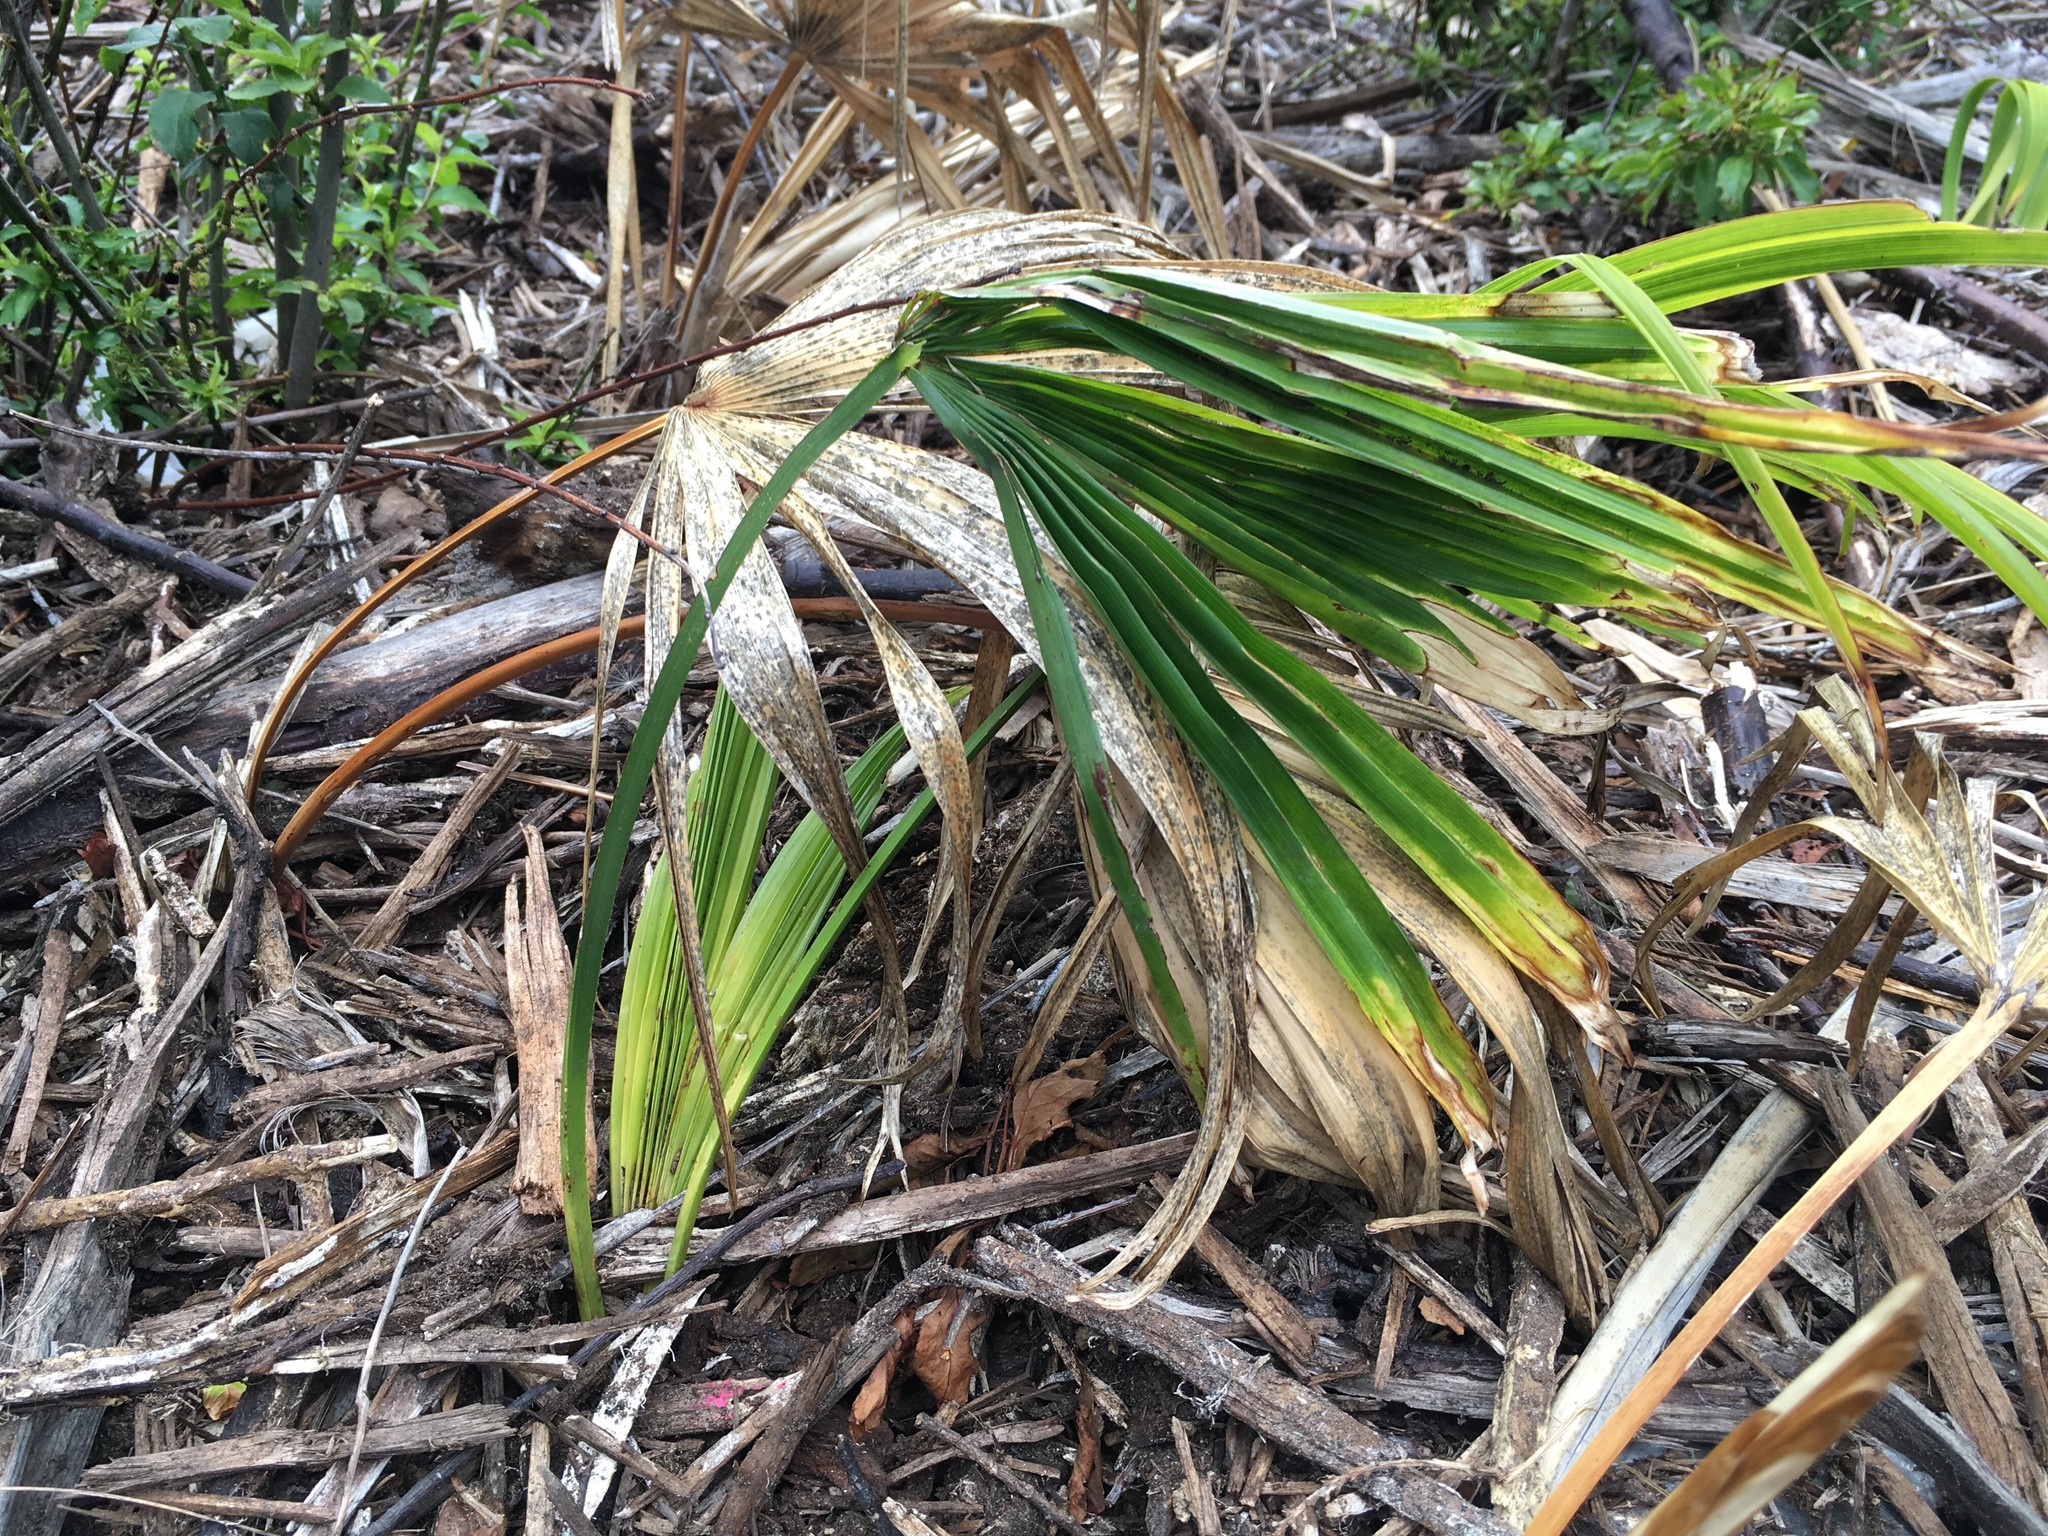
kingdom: Plantae
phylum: Tracheophyta
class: Liliopsida
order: Arecales
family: Arecaceae
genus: Trachycarpus
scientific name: Trachycarpus fortunei
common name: Chusan palm
